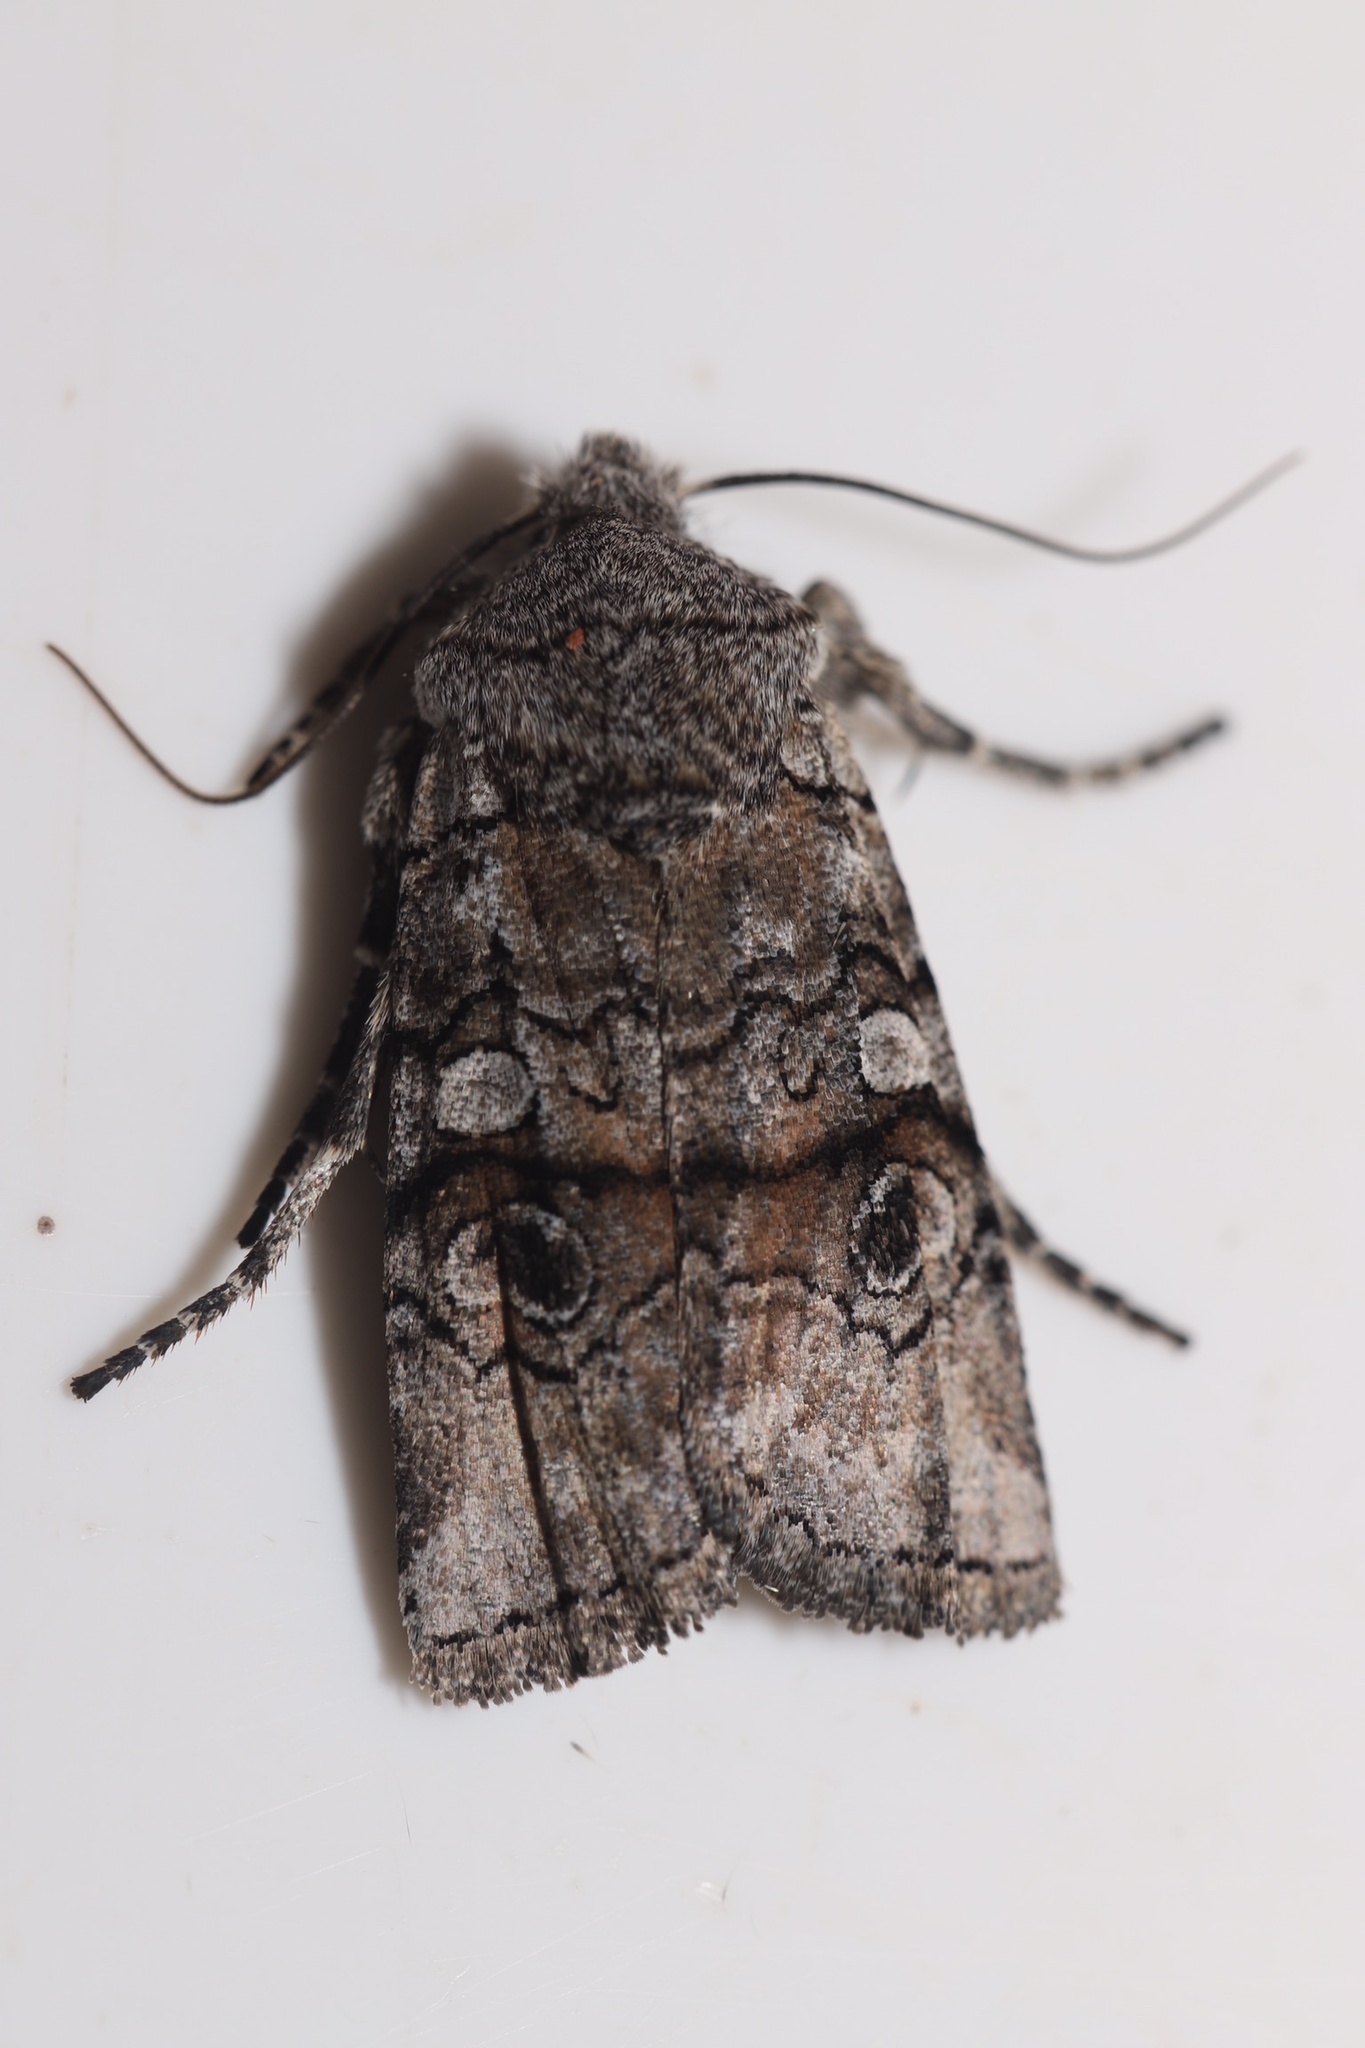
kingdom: Animalia
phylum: Arthropoda
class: Insecta
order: Lepidoptera
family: Noctuidae
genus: Litholomia
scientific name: Litholomia napaea
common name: False pinion moth
